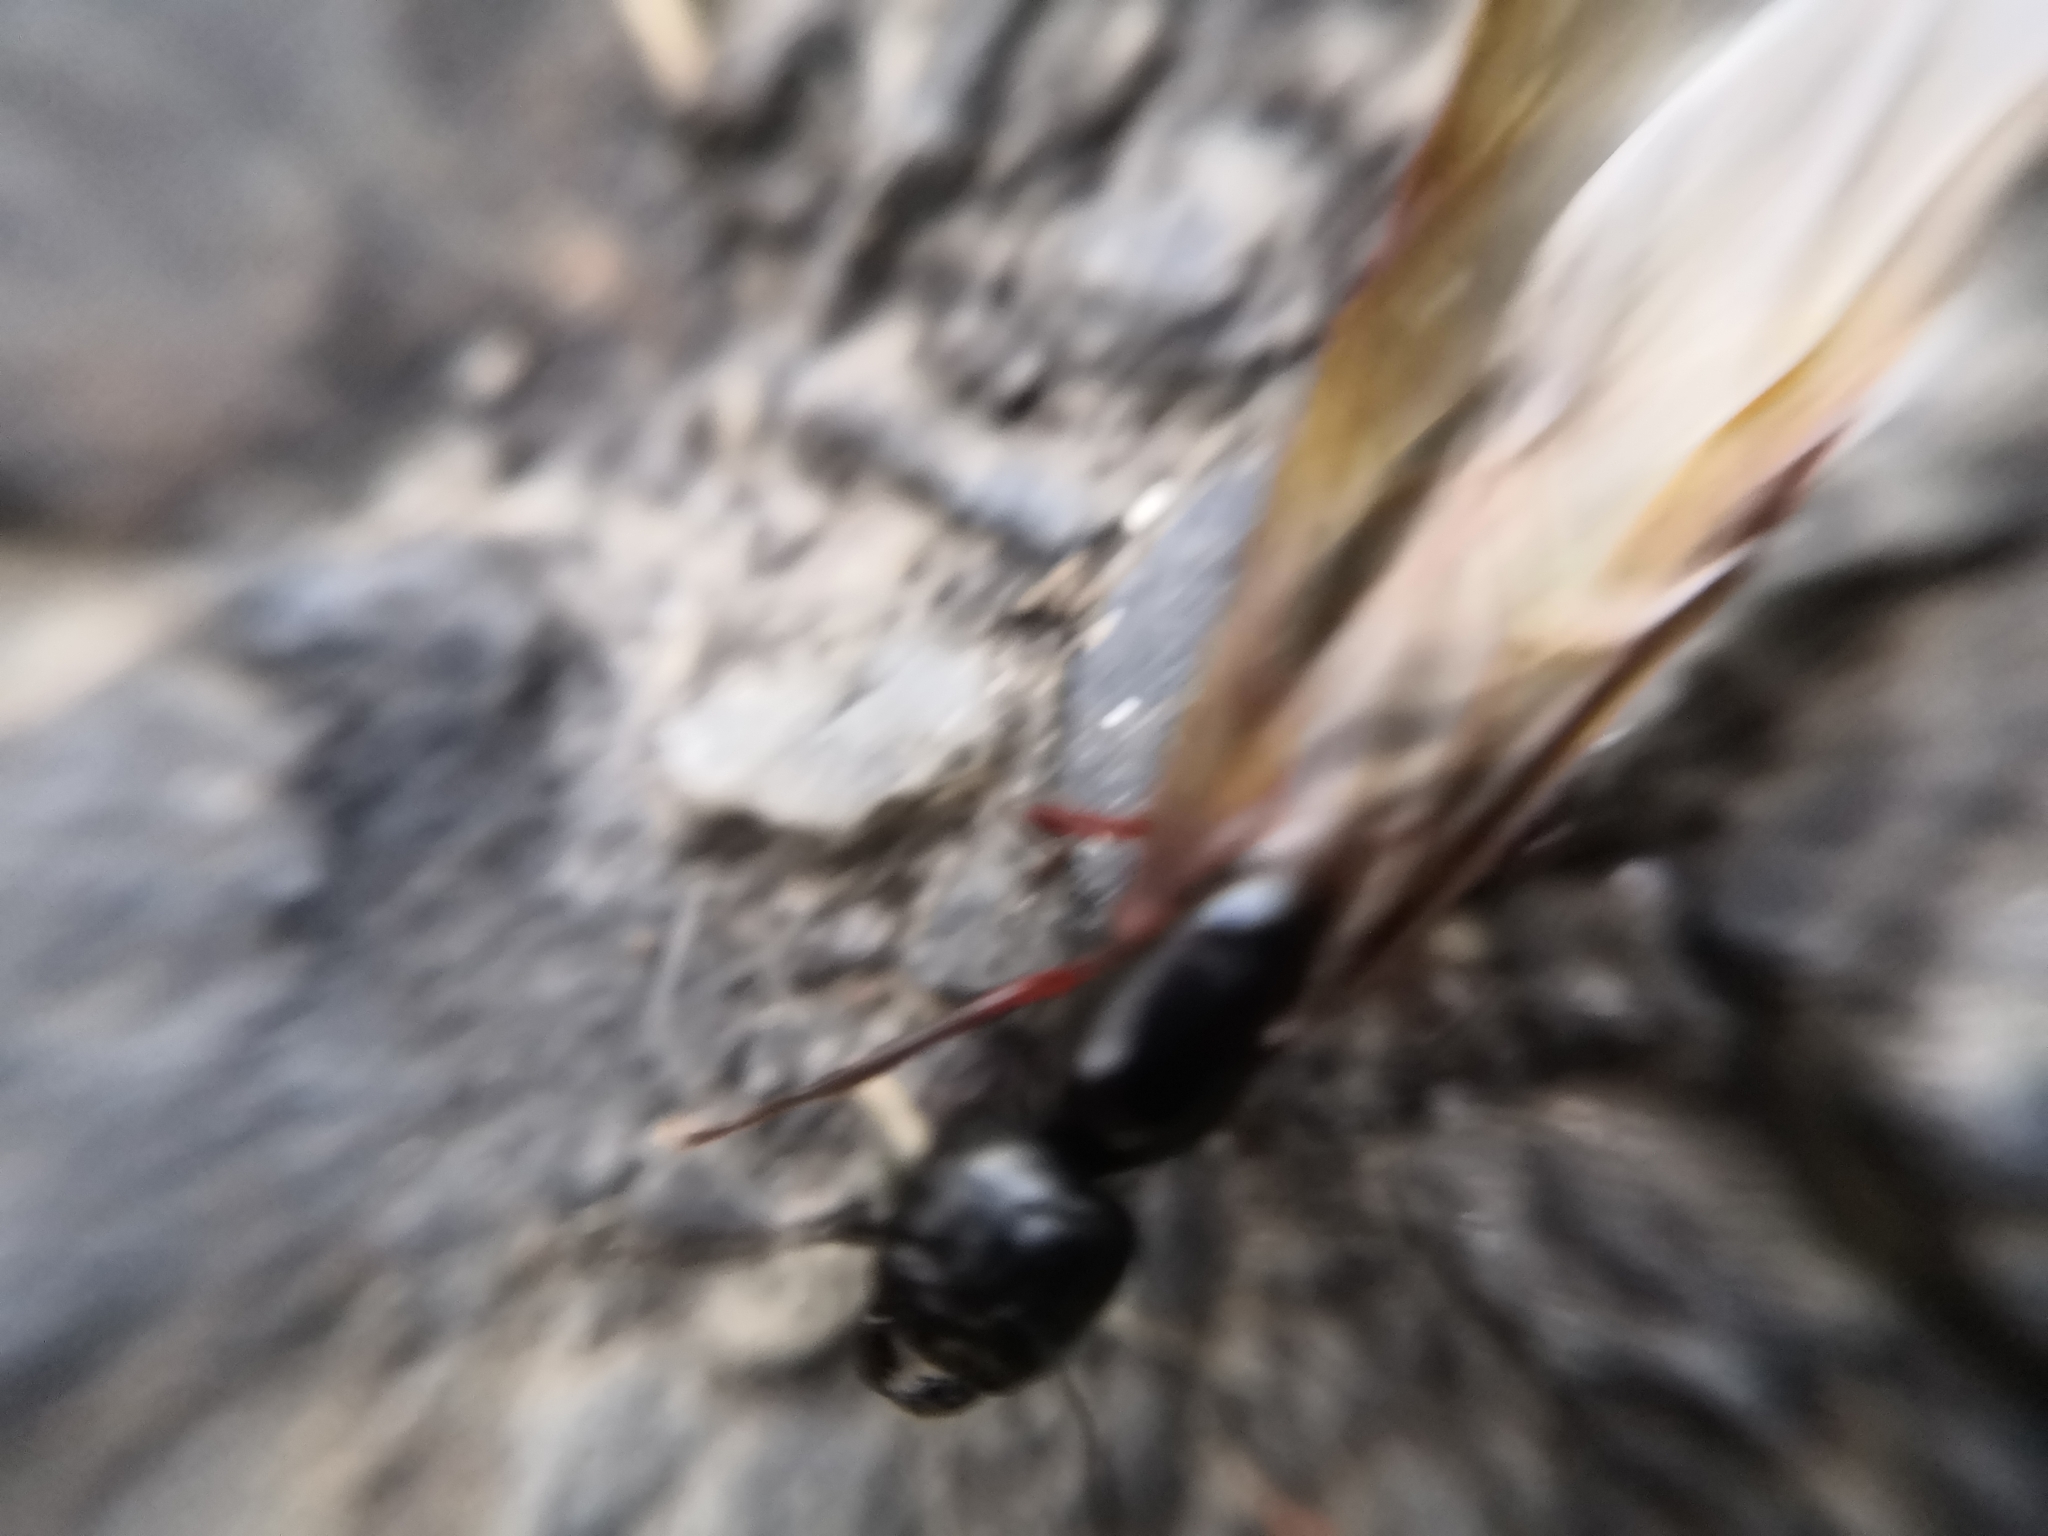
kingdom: Animalia
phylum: Arthropoda
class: Insecta
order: Hymenoptera
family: Formicidae
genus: Camponotus
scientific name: Camponotus herculeanus
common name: Hercules ant
